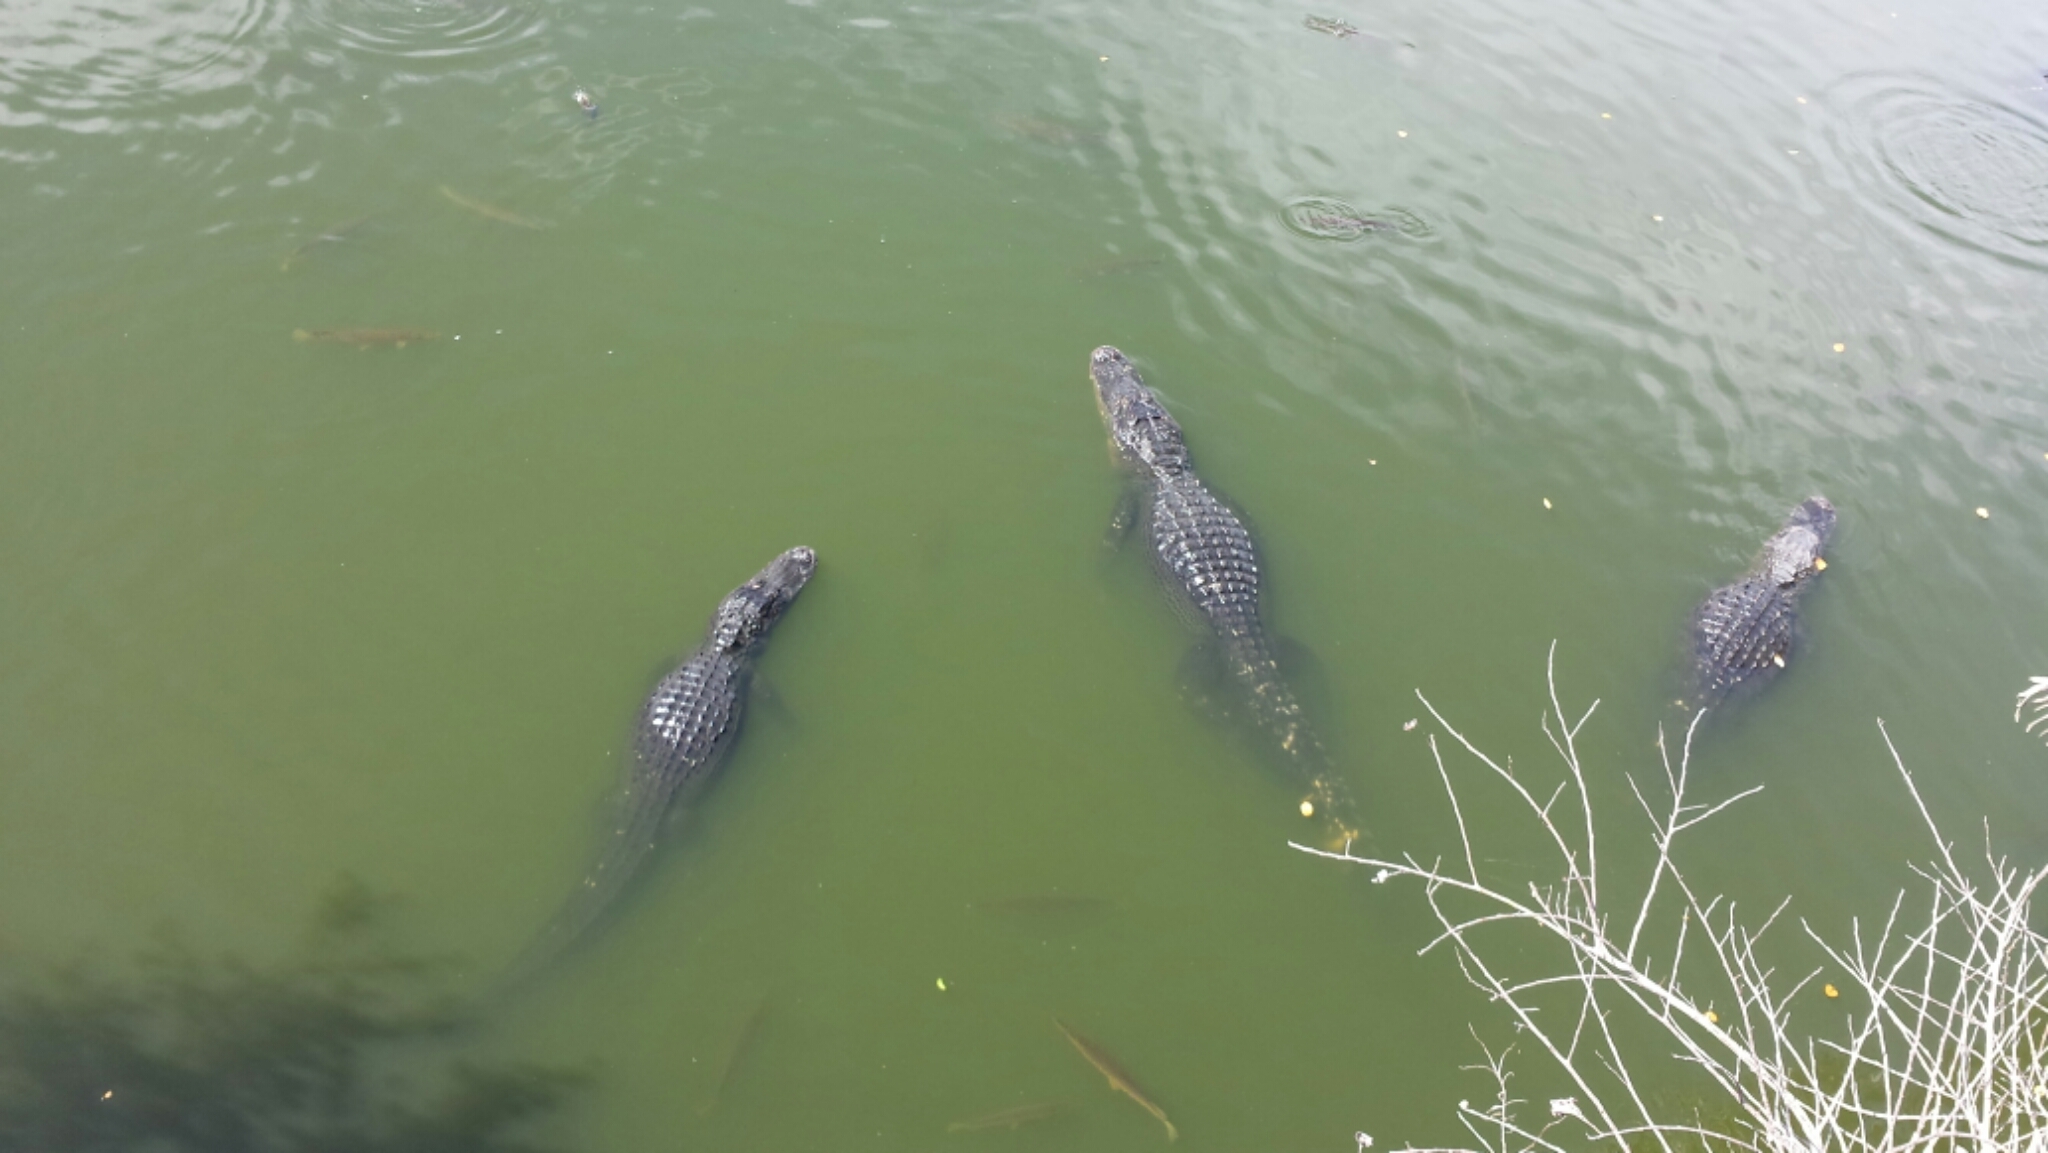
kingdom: Animalia
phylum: Chordata
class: Crocodylia
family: Alligatoridae
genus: Alligator
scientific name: Alligator mississippiensis
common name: American alligator
